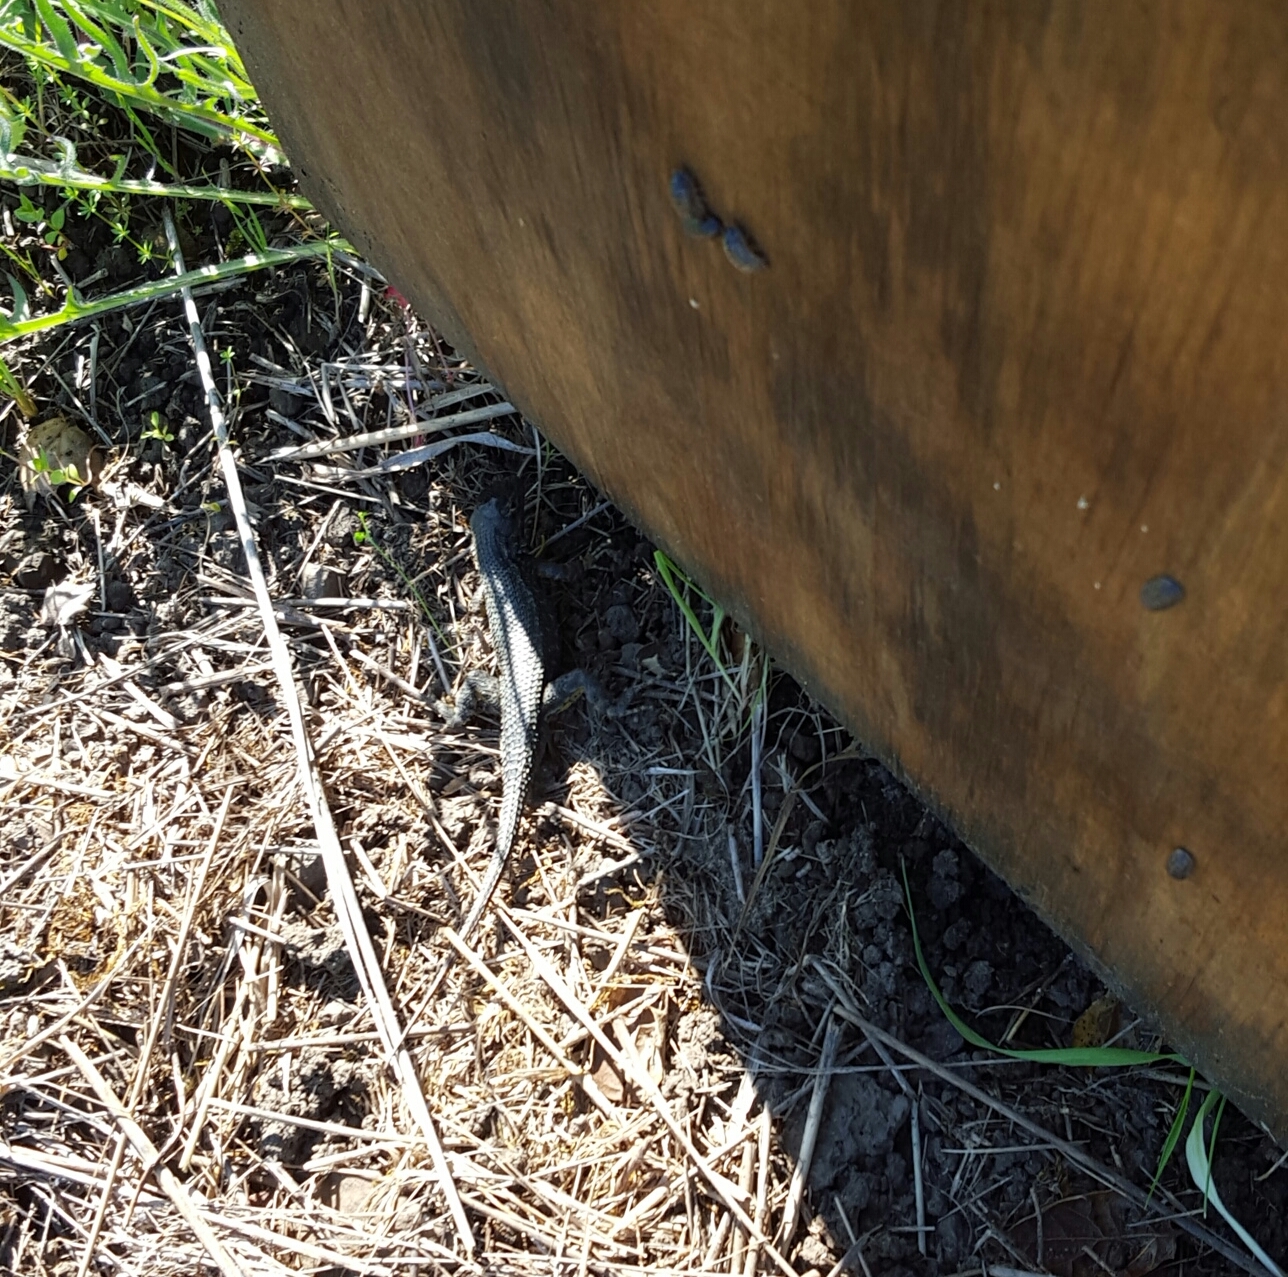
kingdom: Animalia
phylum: Chordata
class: Squamata
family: Phrynosomatidae
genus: Sceloporus
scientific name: Sceloporus occidentalis
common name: Western fence lizard
